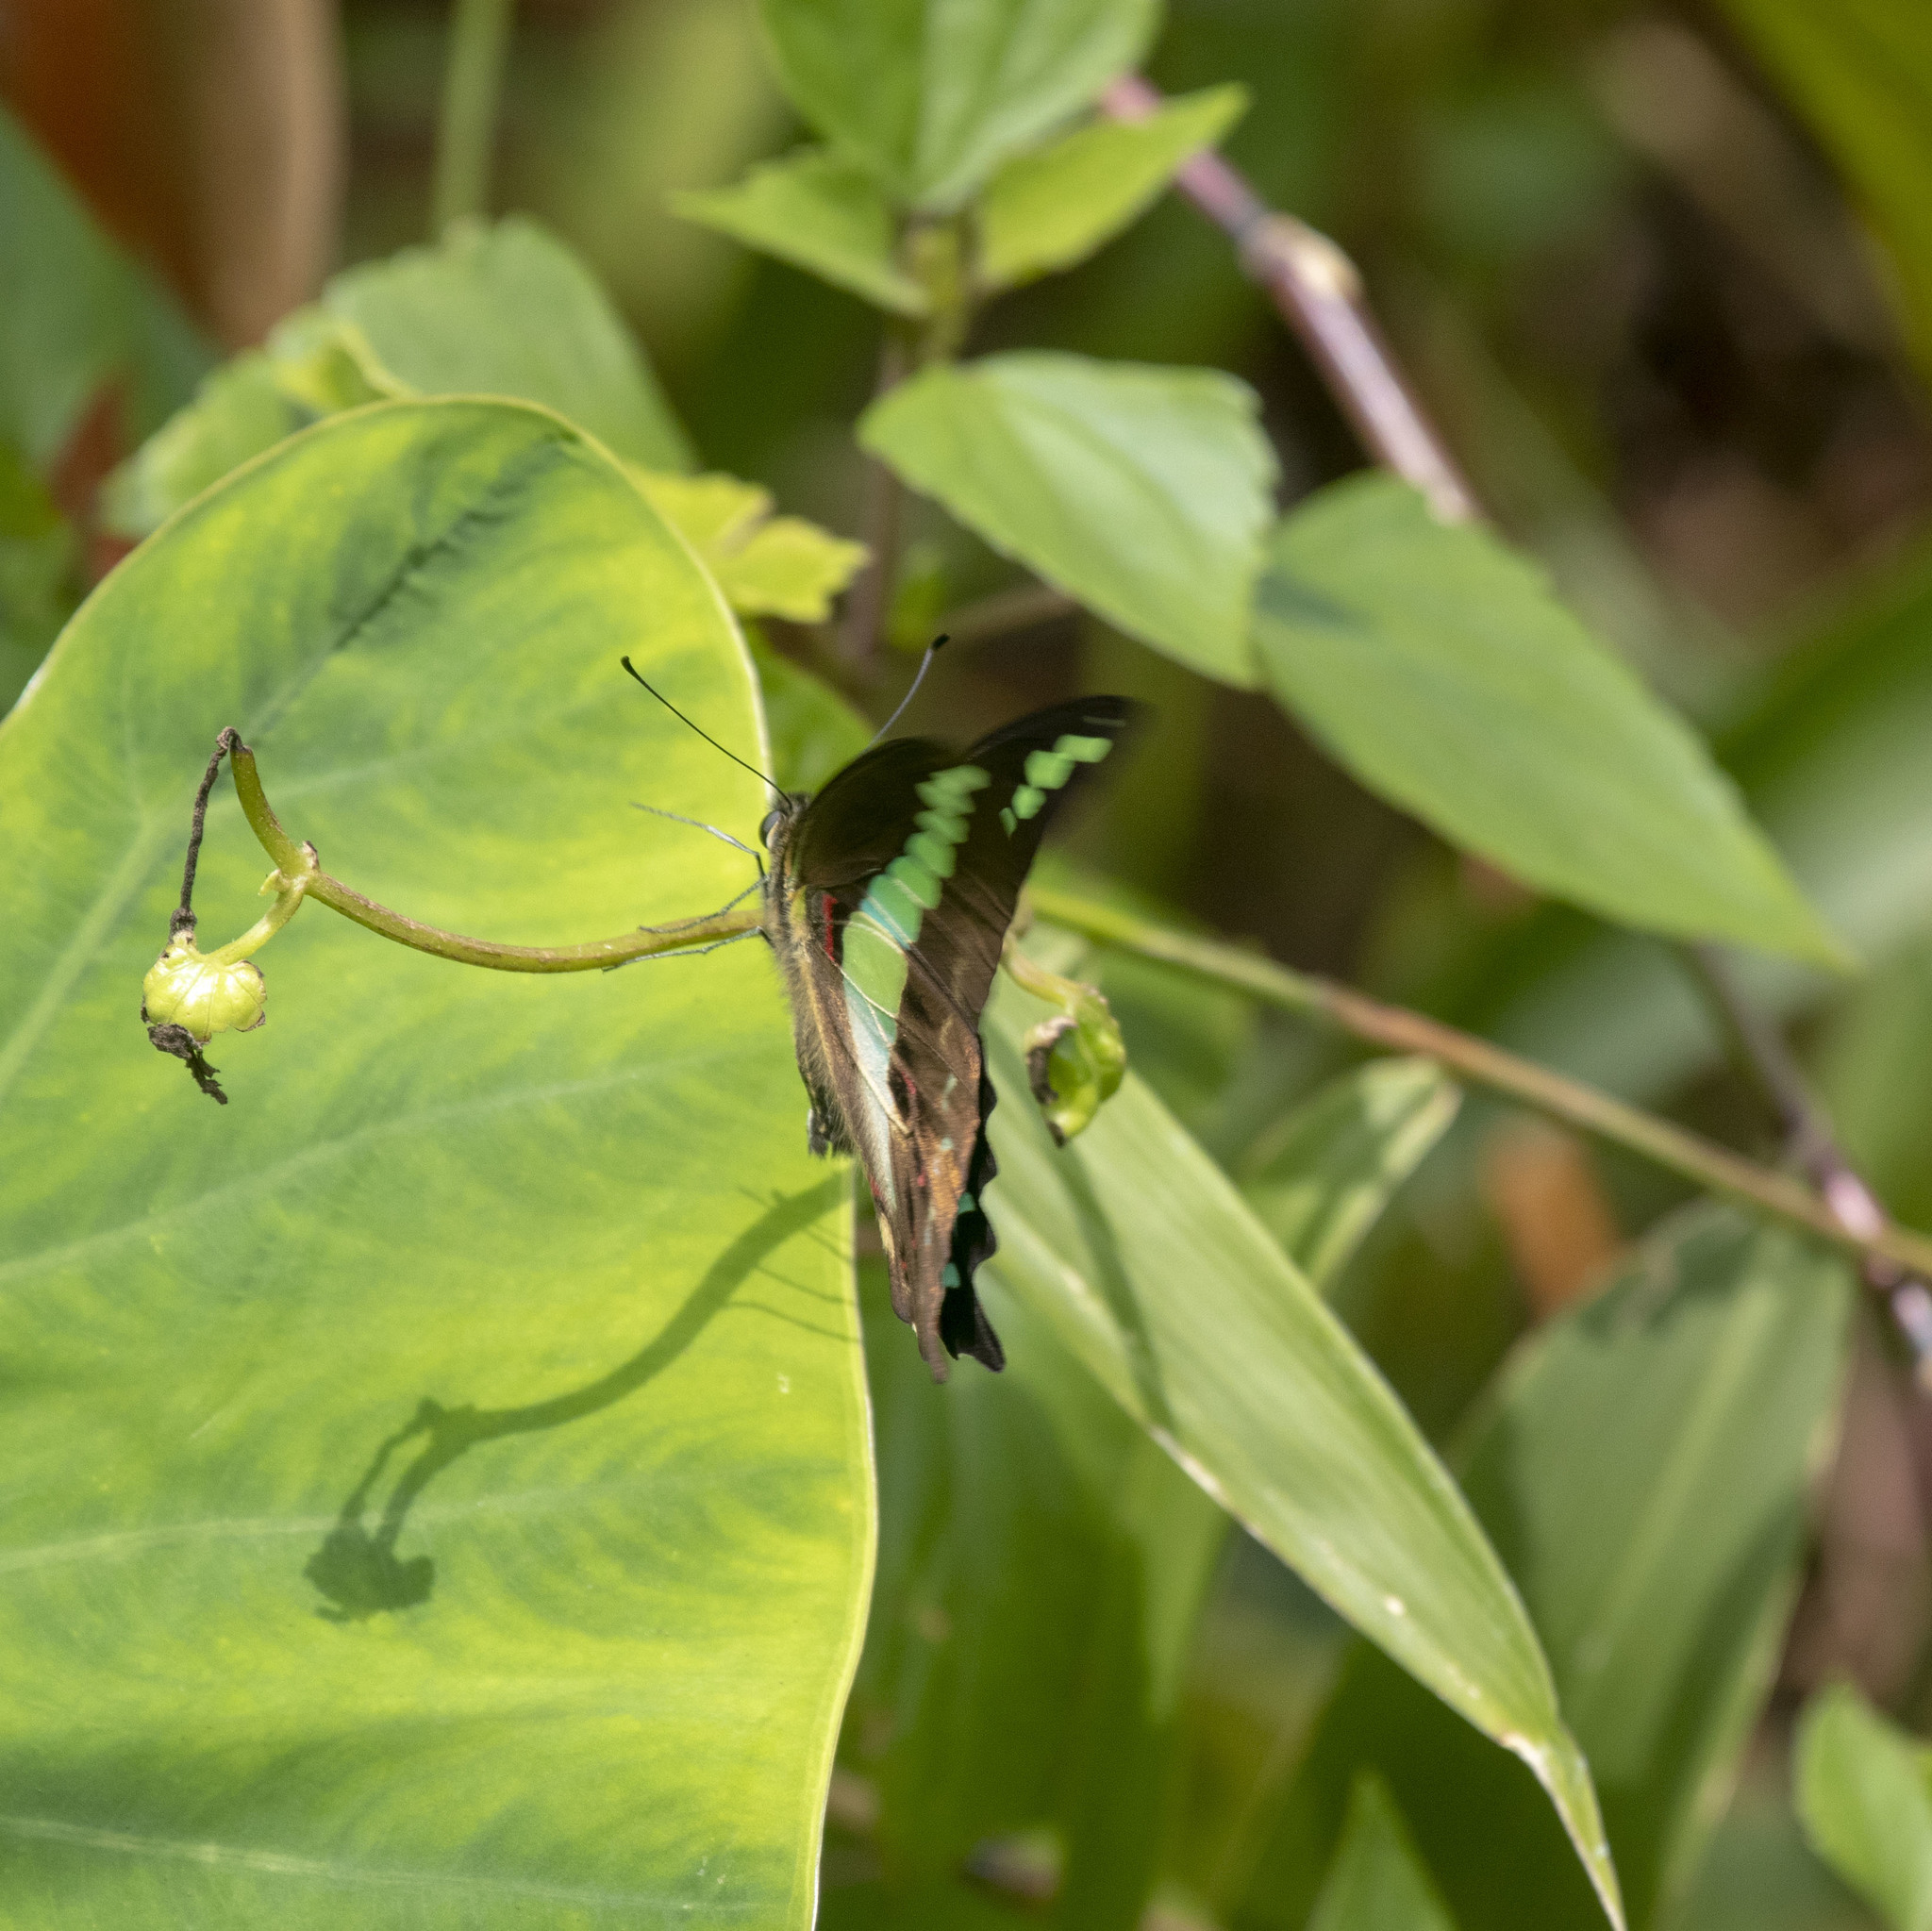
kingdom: Animalia
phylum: Arthropoda
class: Insecta
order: Lepidoptera
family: Papilionidae
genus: Graphium
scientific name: Graphium
